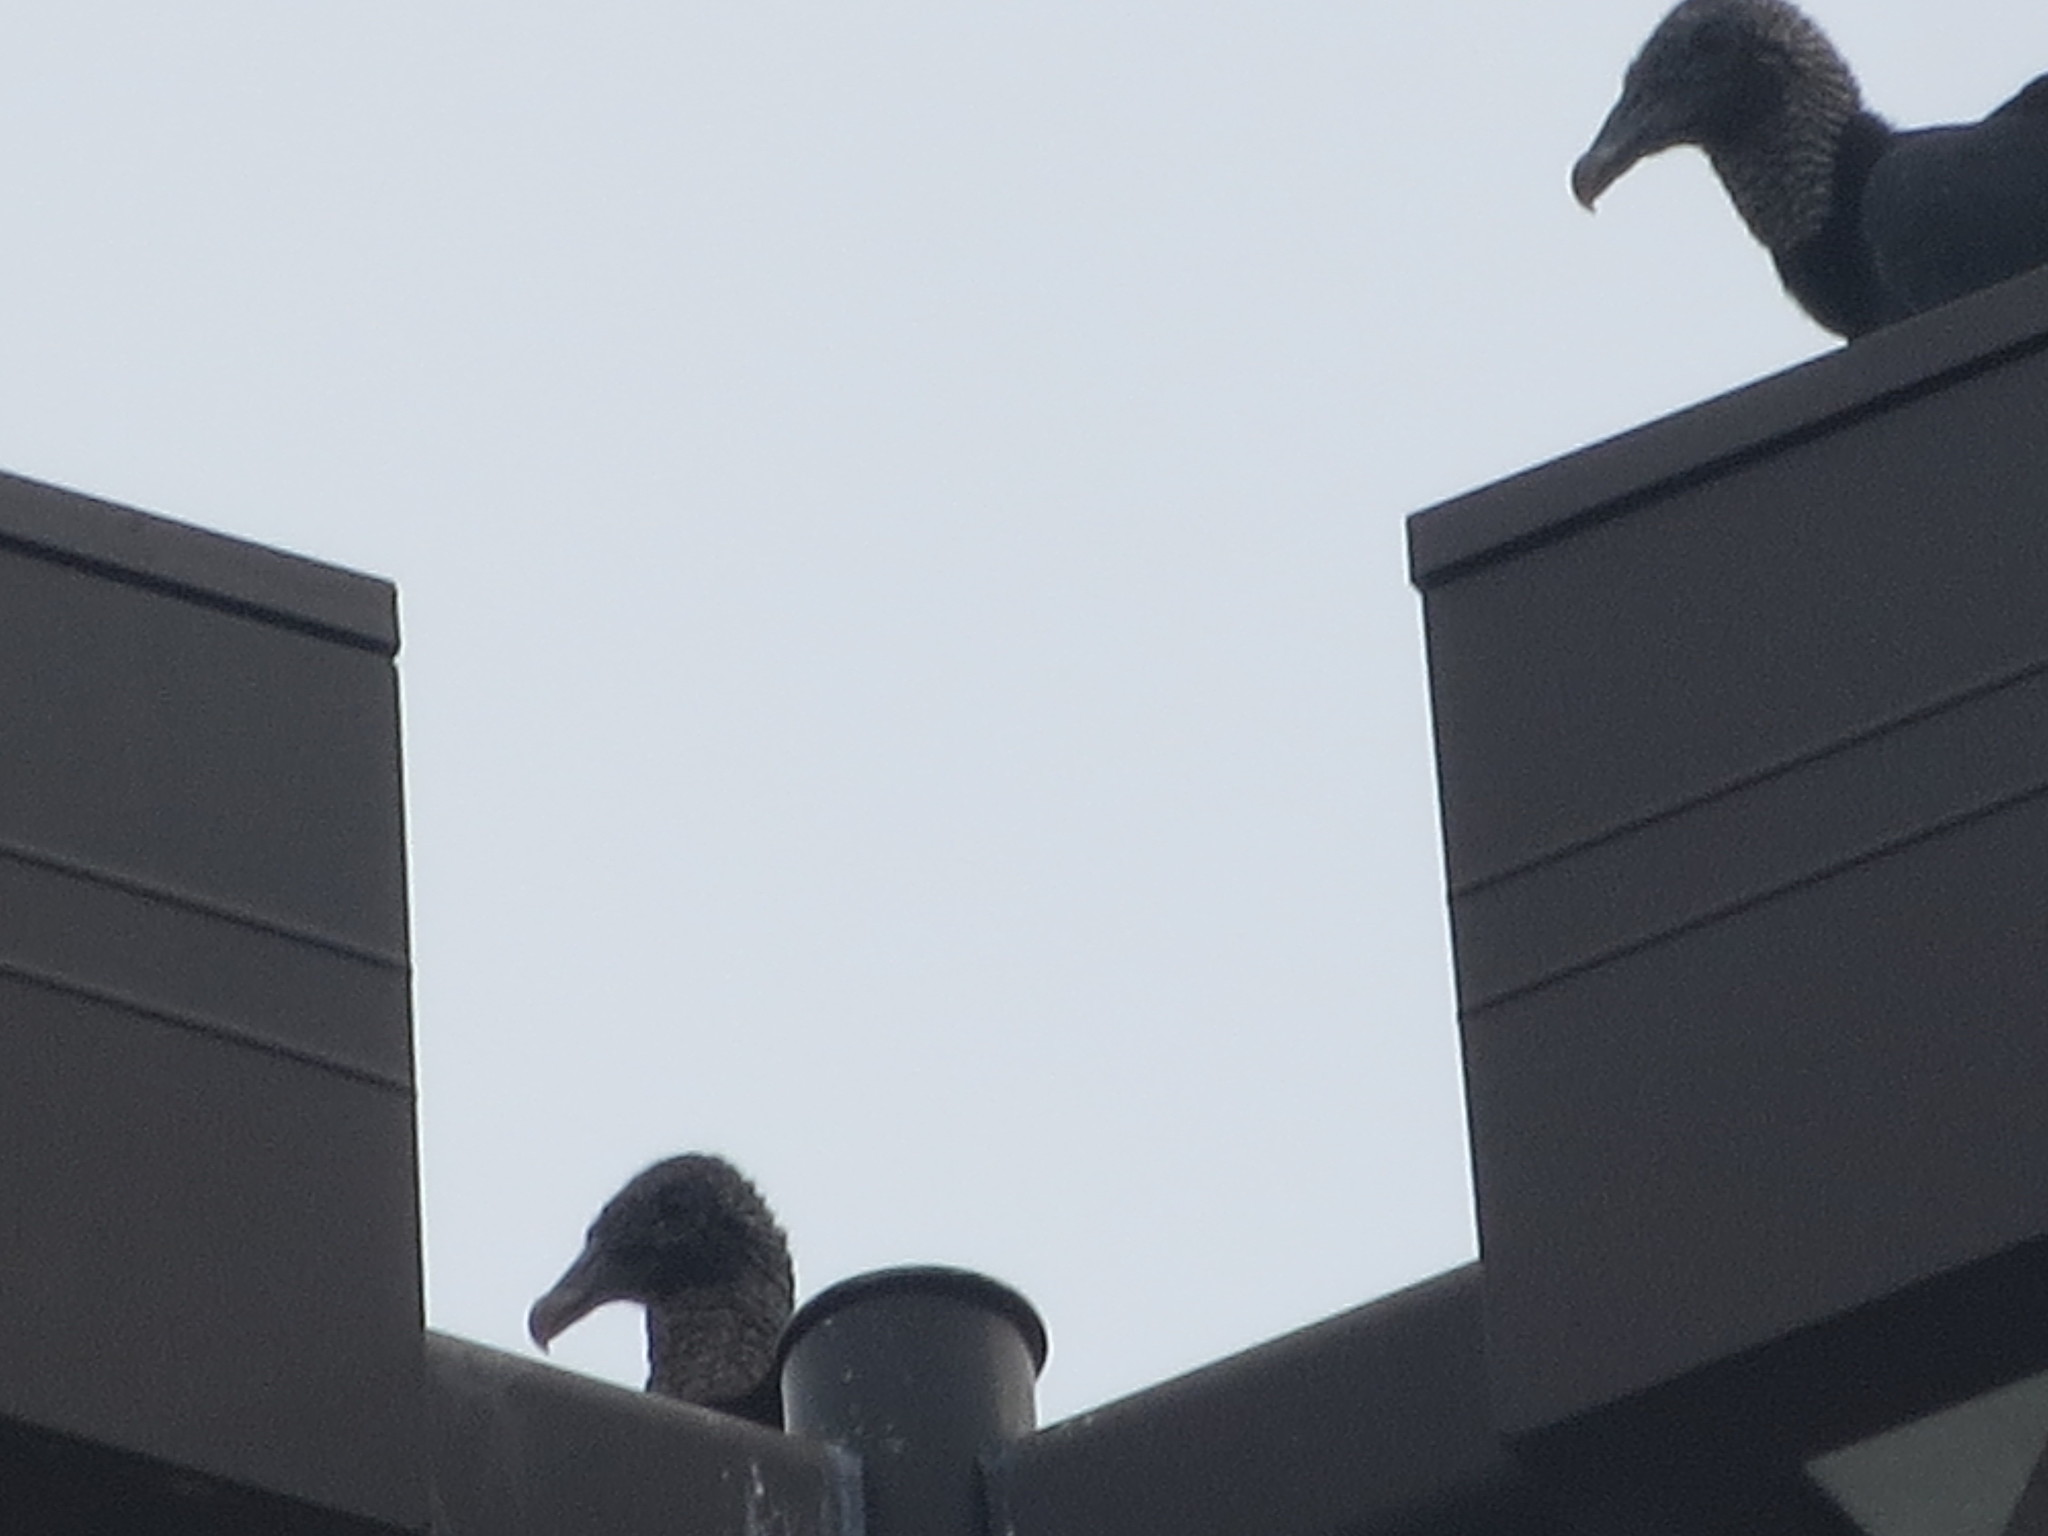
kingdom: Animalia
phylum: Chordata
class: Aves
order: Accipitriformes
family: Cathartidae
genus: Coragyps
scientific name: Coragyps atratus
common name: Black vulture
